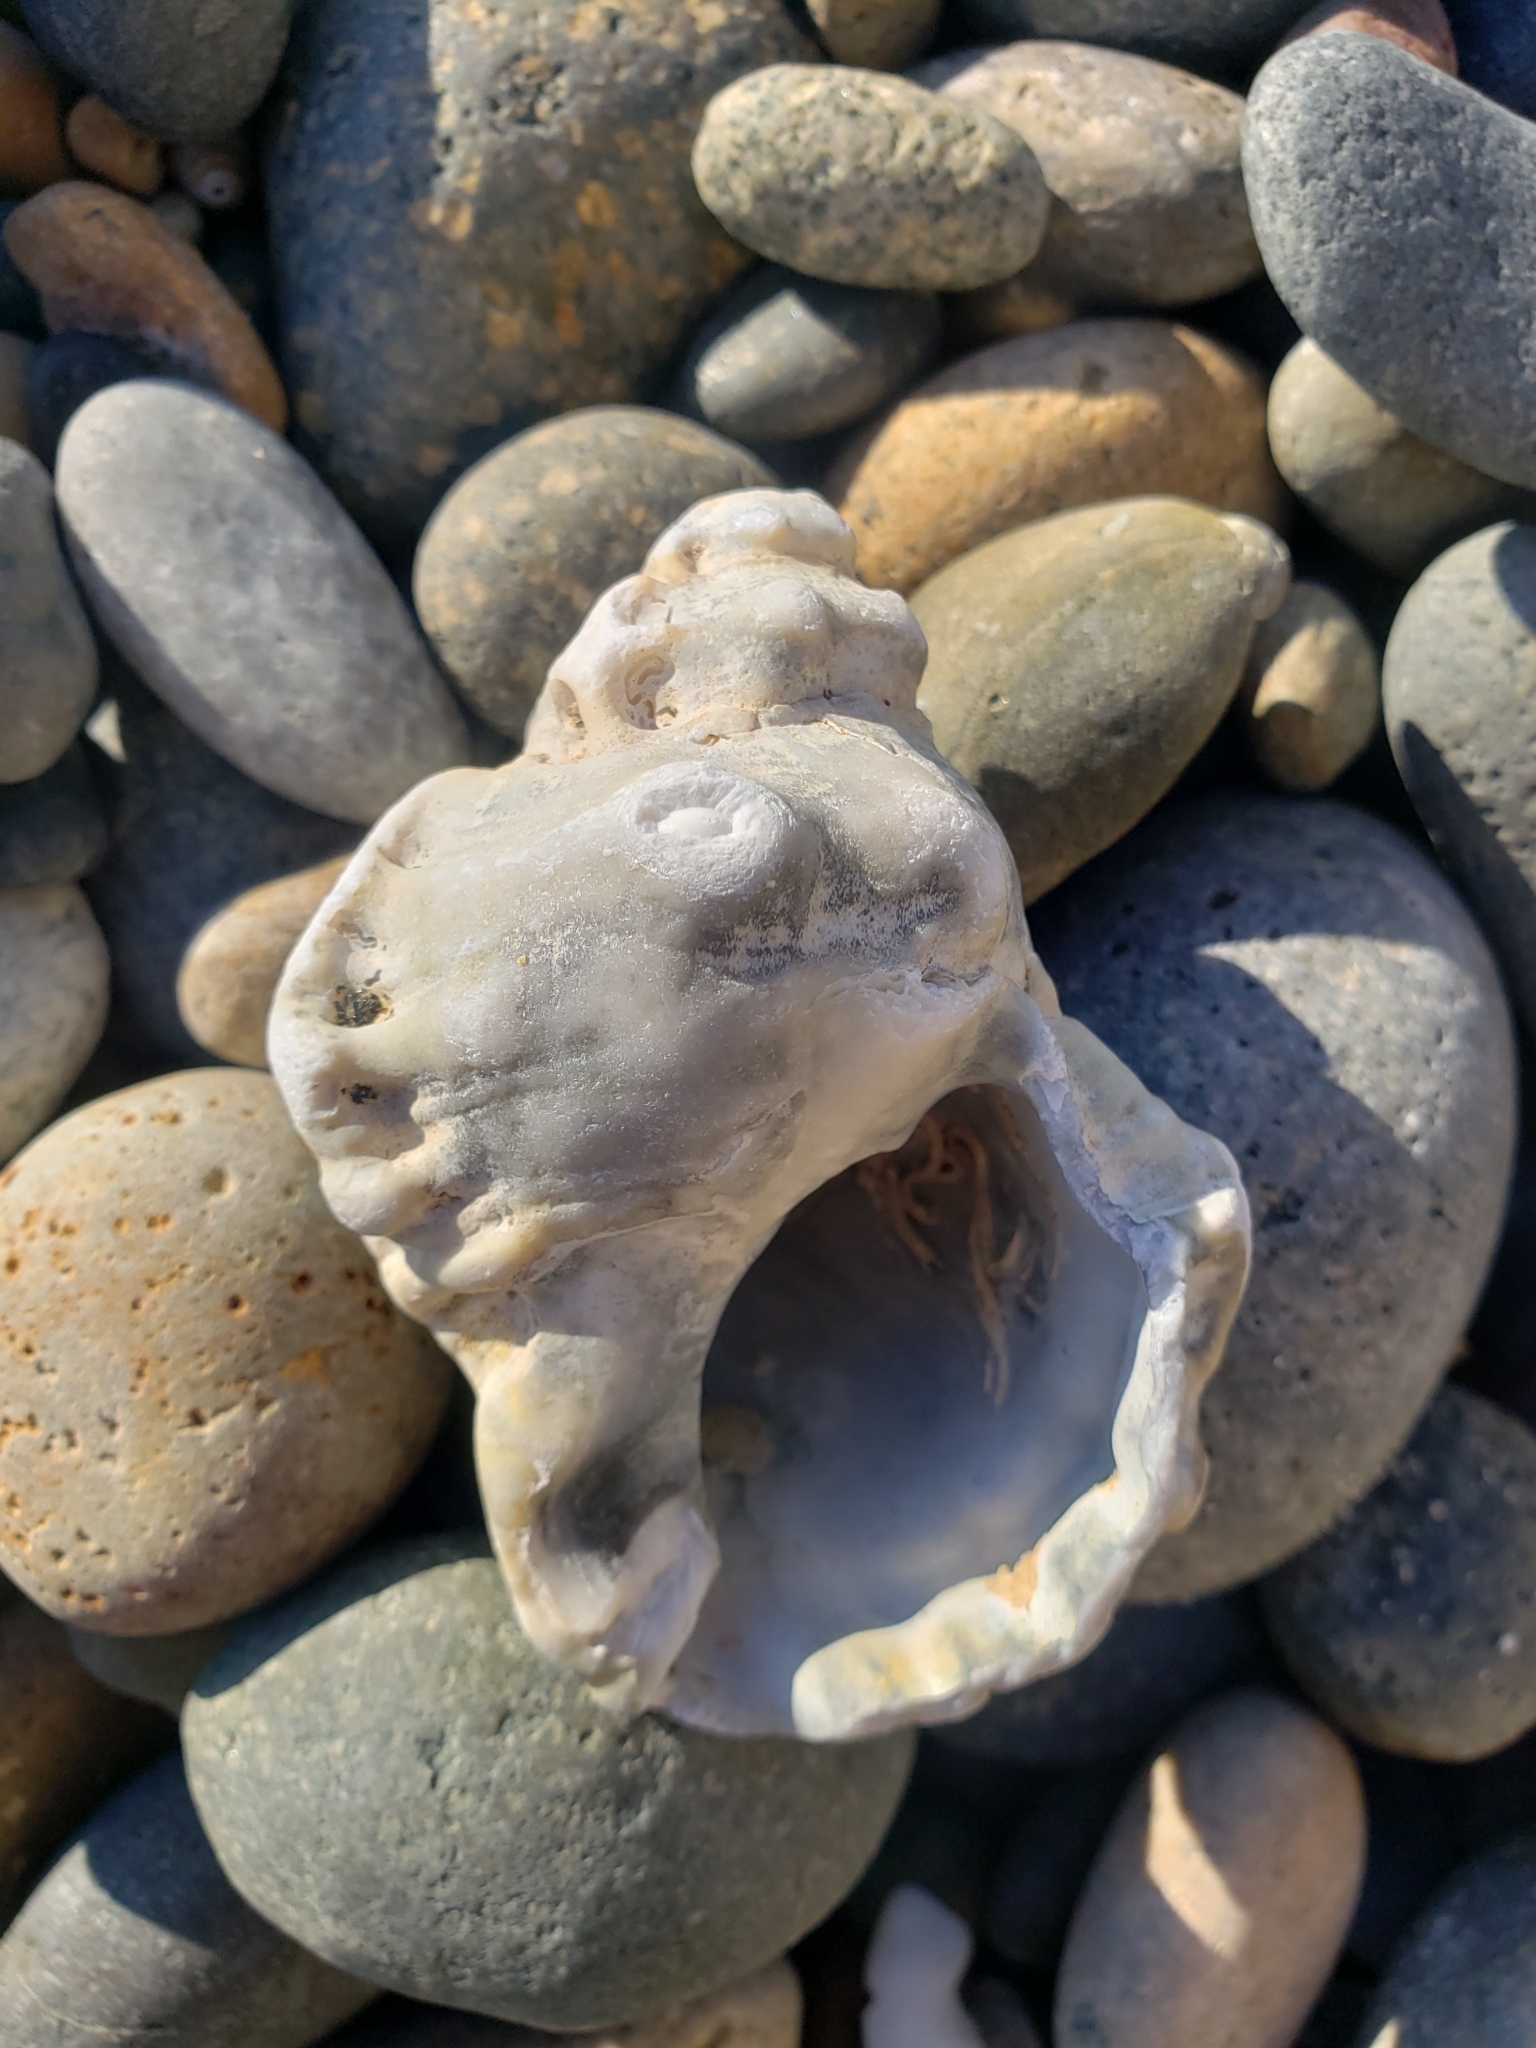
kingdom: Animalia
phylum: Mollusca
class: Gastropoda
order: Littorinimorpha
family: Bursidae
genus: Crossata
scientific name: Crossata californica
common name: California frogsnail
